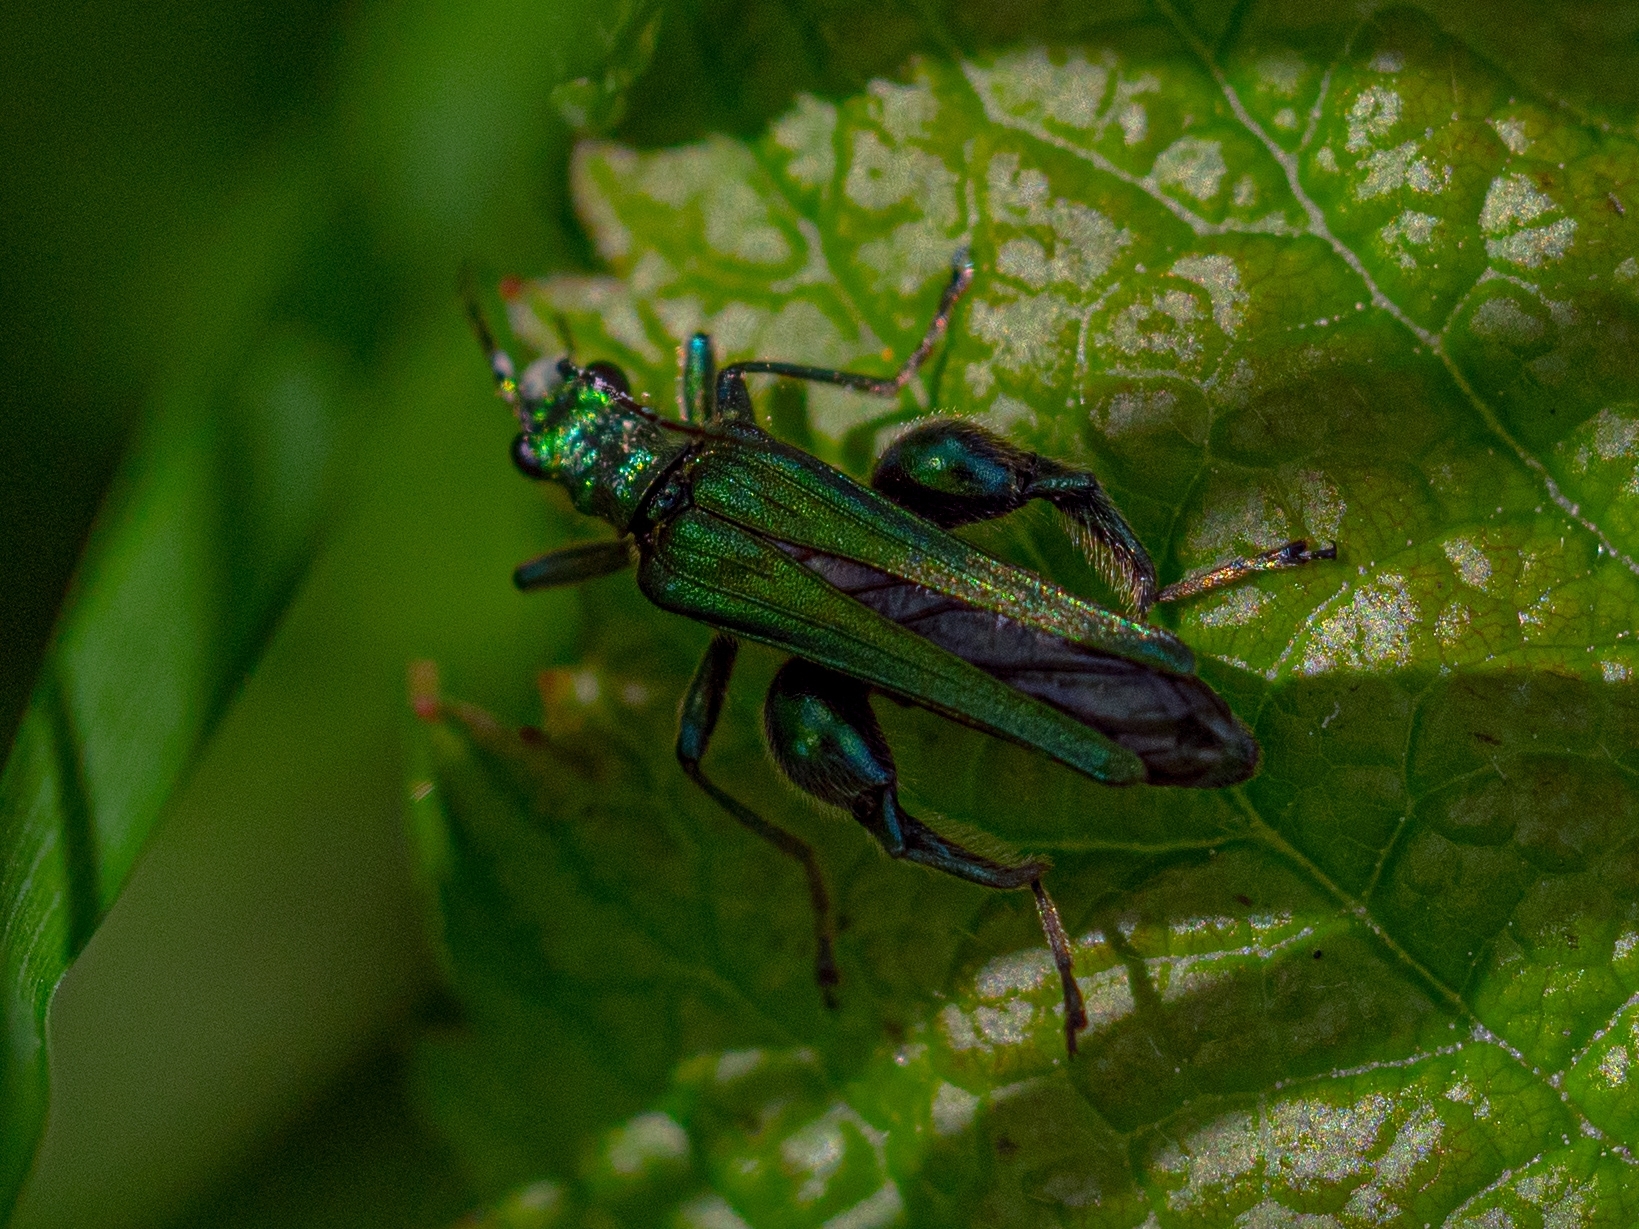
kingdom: Animalia
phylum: Arthropoda
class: Insecta
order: Coleoptera
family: Oedemeridae
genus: Oedemera
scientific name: Oedemera nobilis
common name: Swollen-thighed beetle
